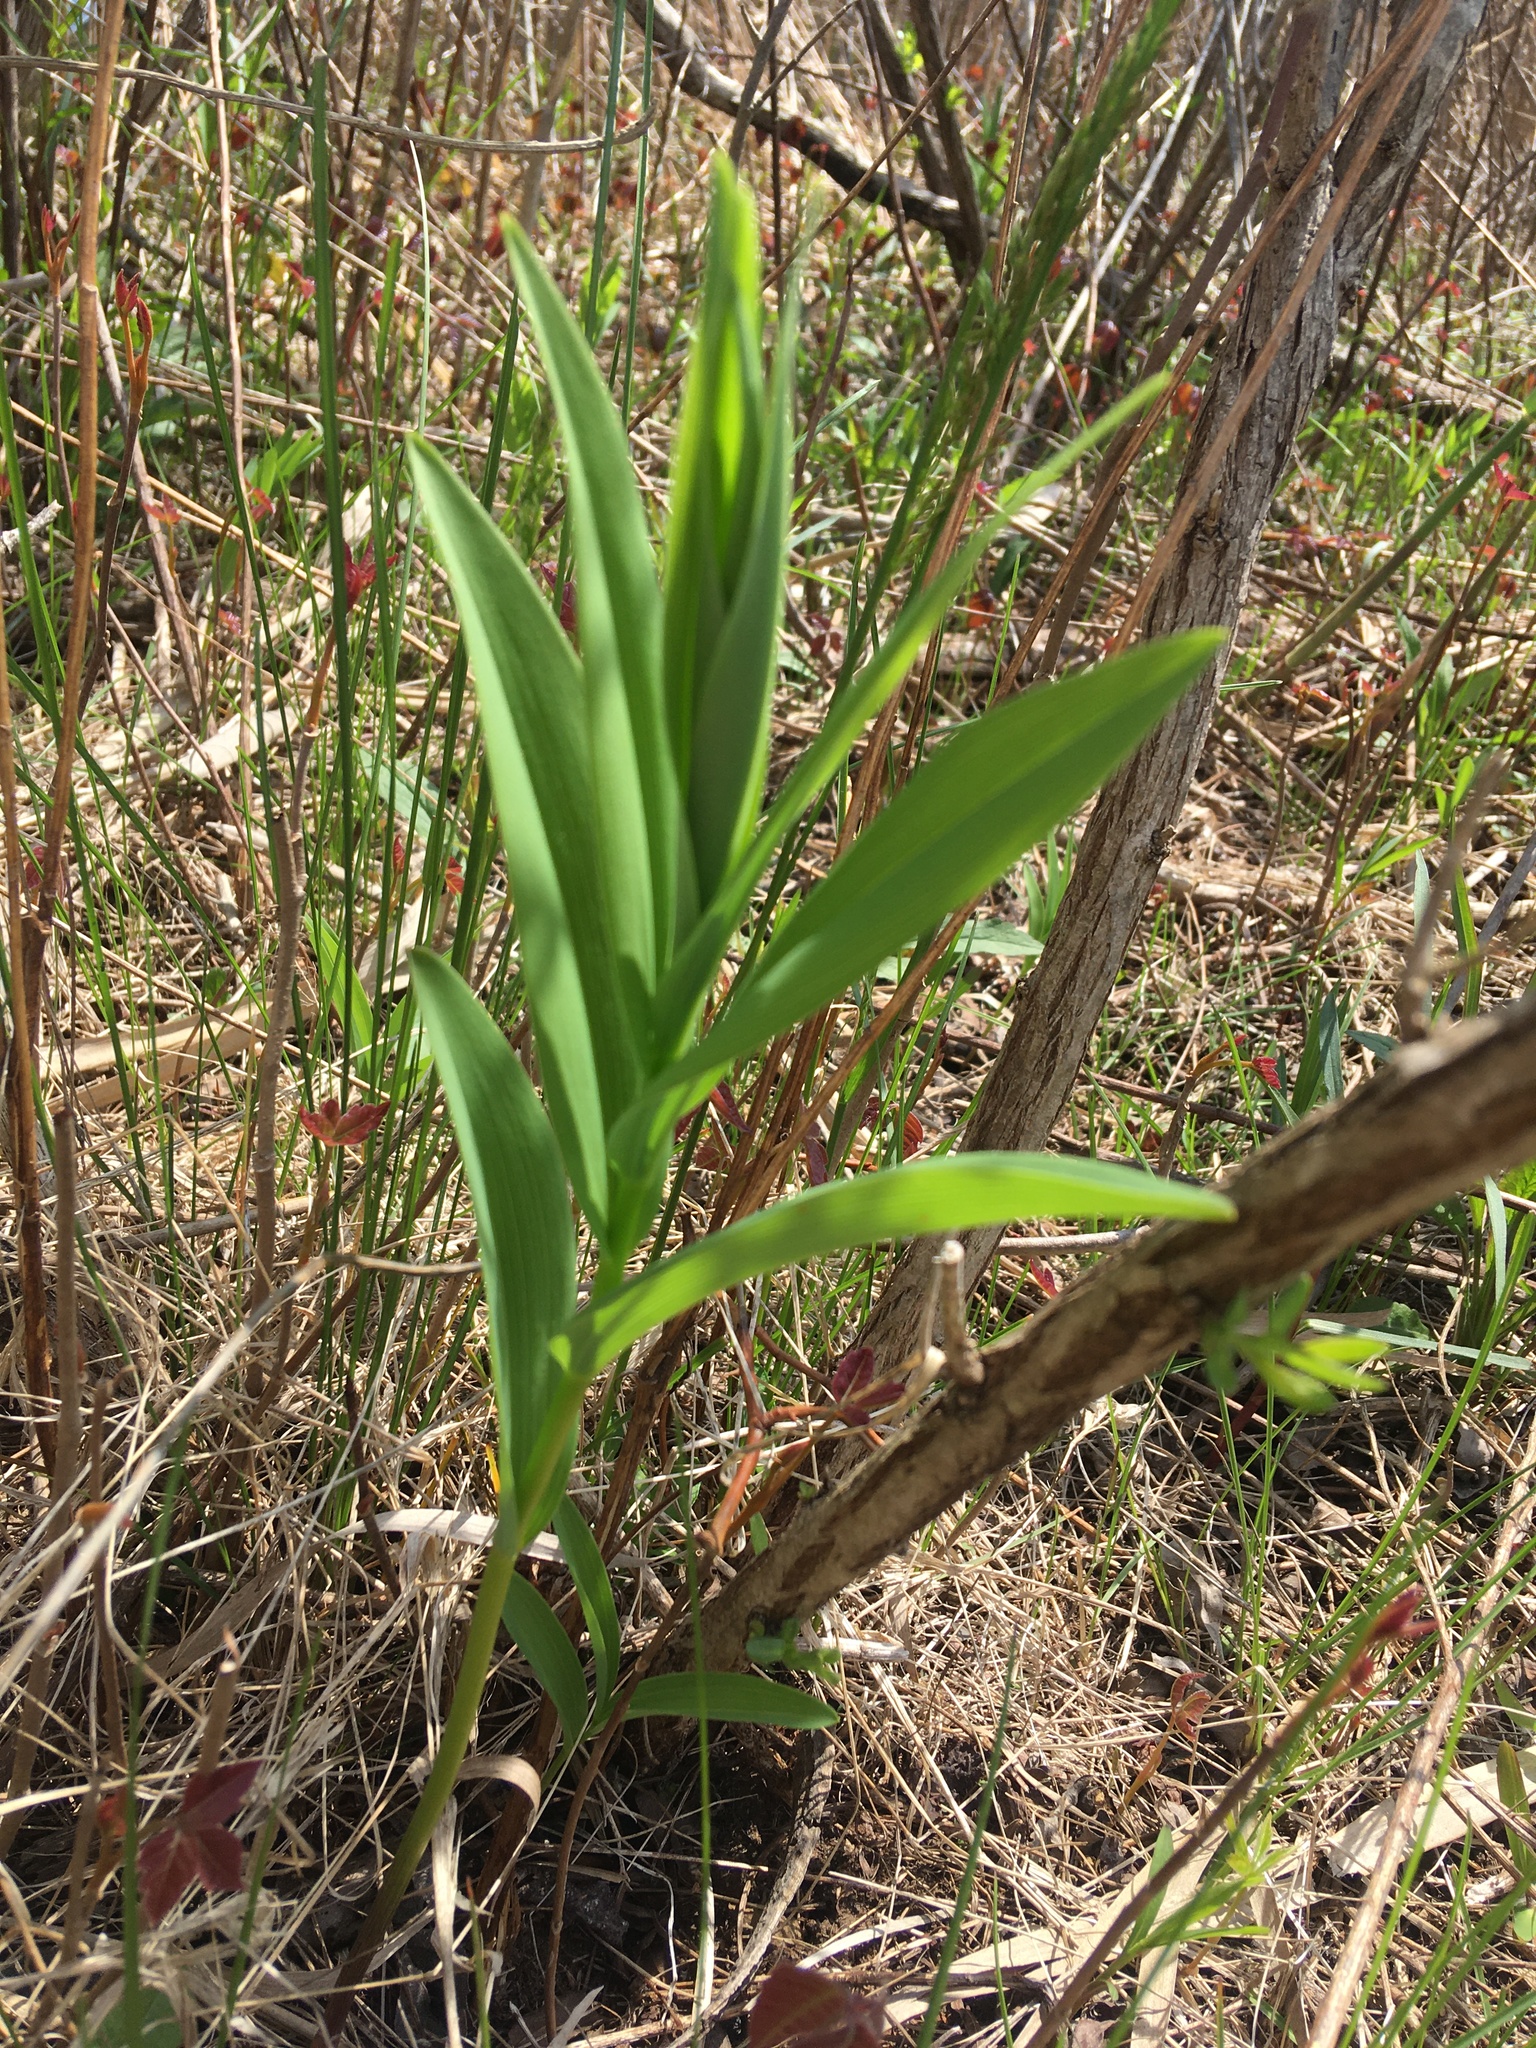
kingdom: Plantae
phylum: Tracheophyta
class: Liliopsida
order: Asparagales
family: Asparagaceae
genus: Maianthemum
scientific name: Maianthemum stellatum
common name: Little false solomon's seal
